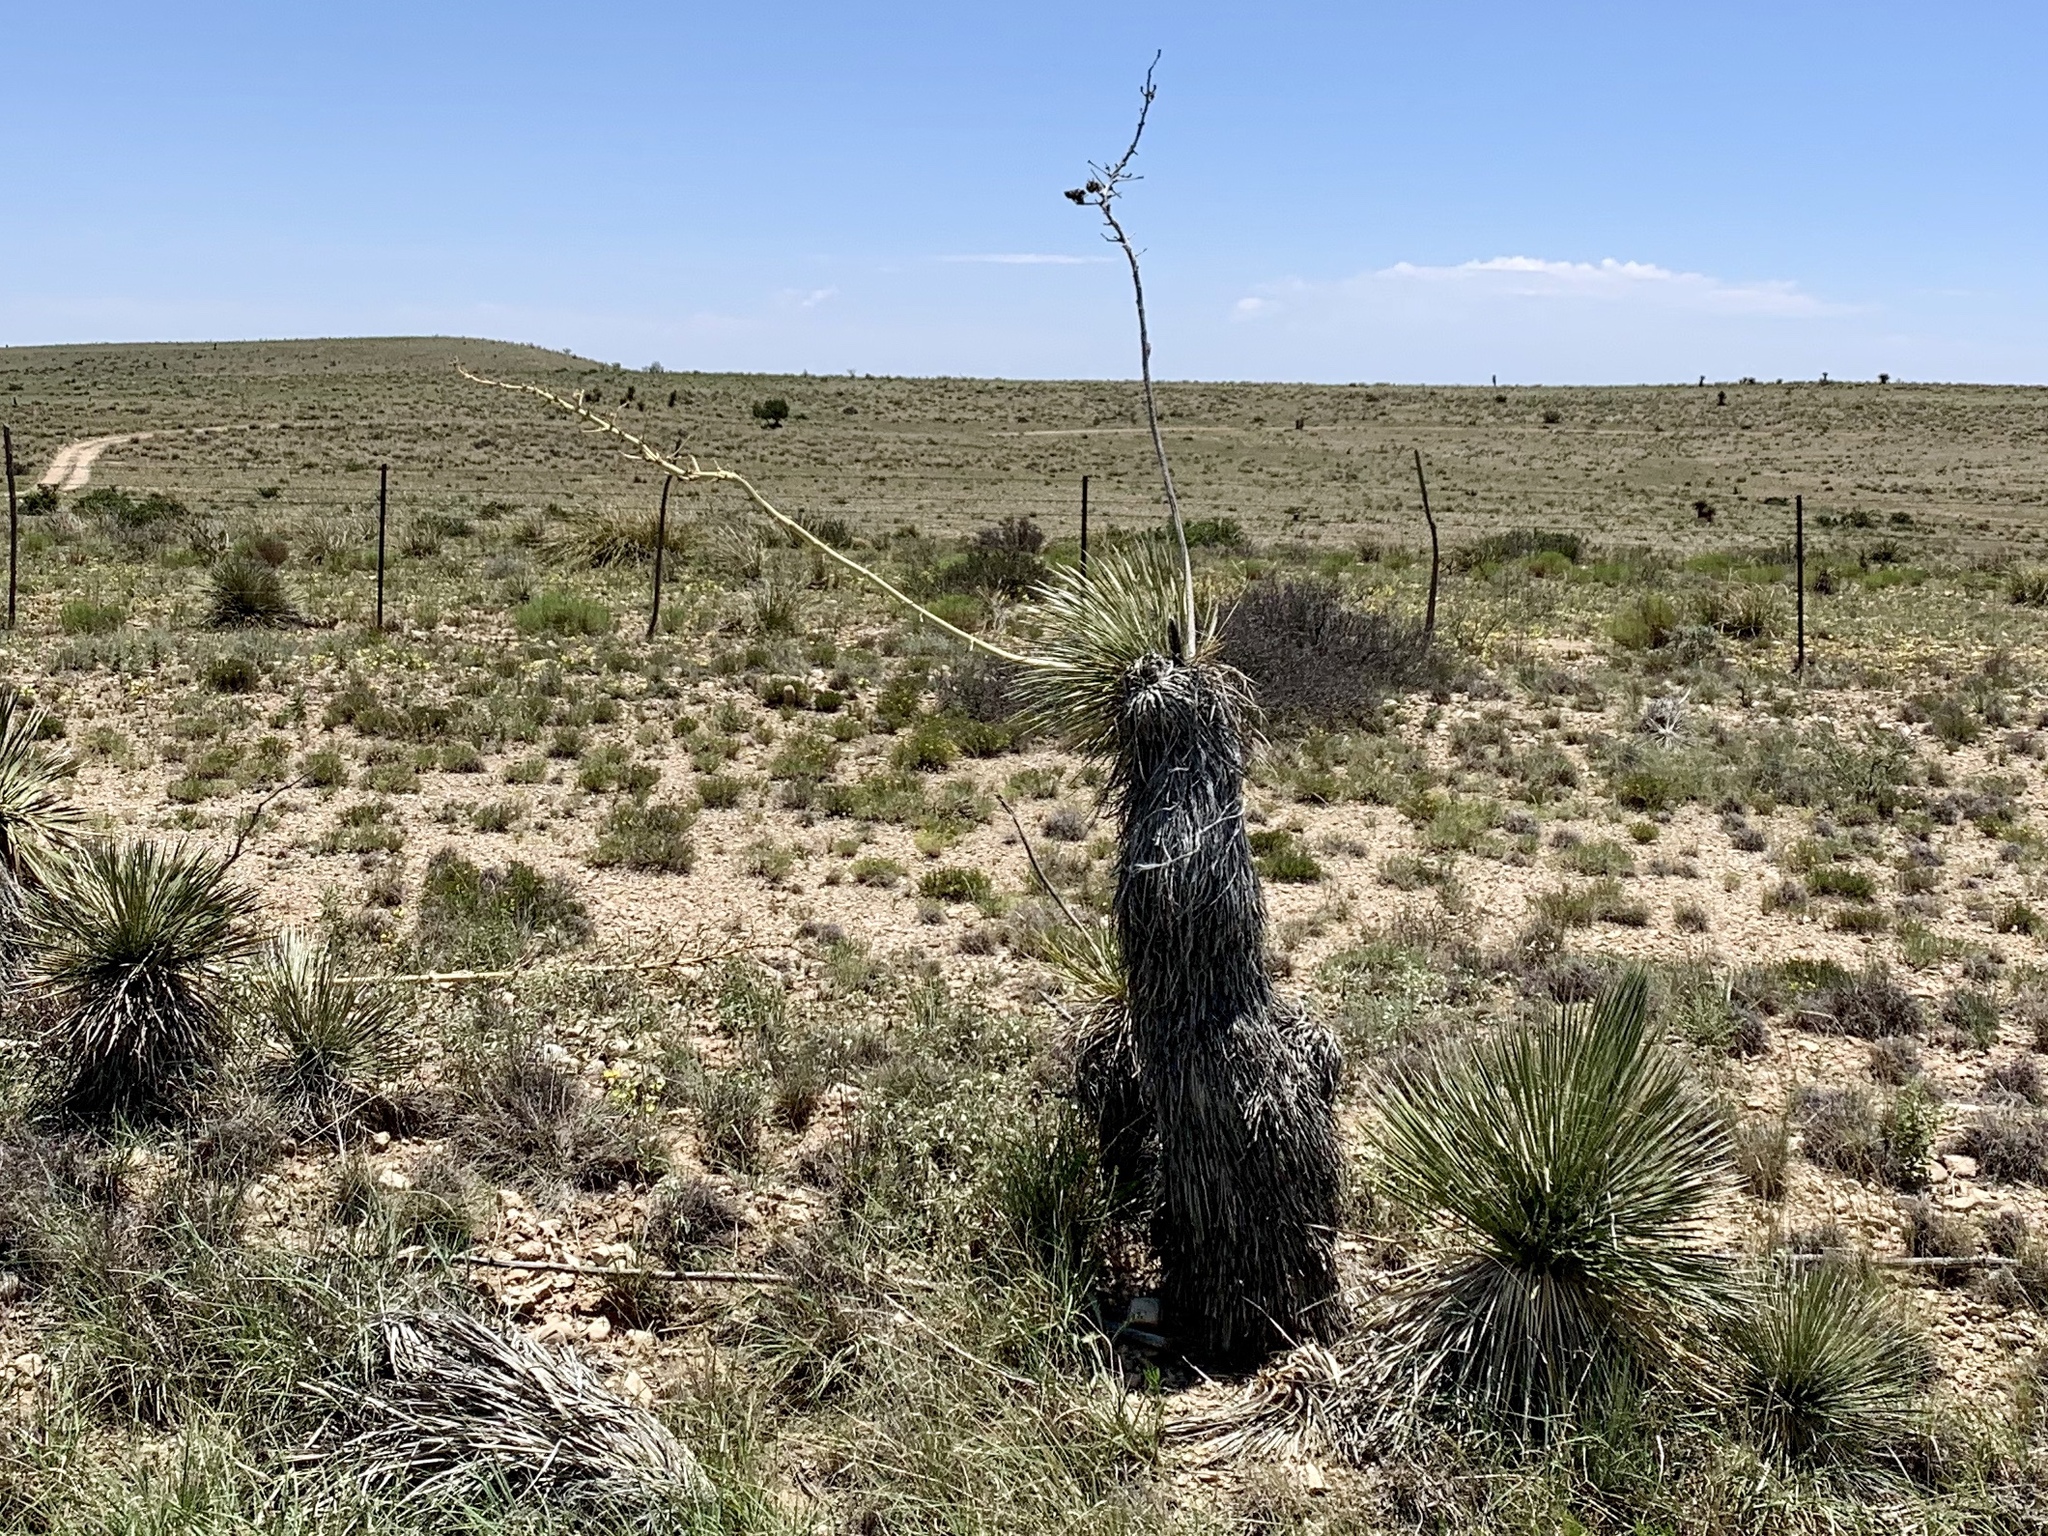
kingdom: Plantae
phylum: Tracheophyta
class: Liliopsida
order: Asparagales
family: Asparagaceae
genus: Yucca
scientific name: Yucca elata
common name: Palmella
